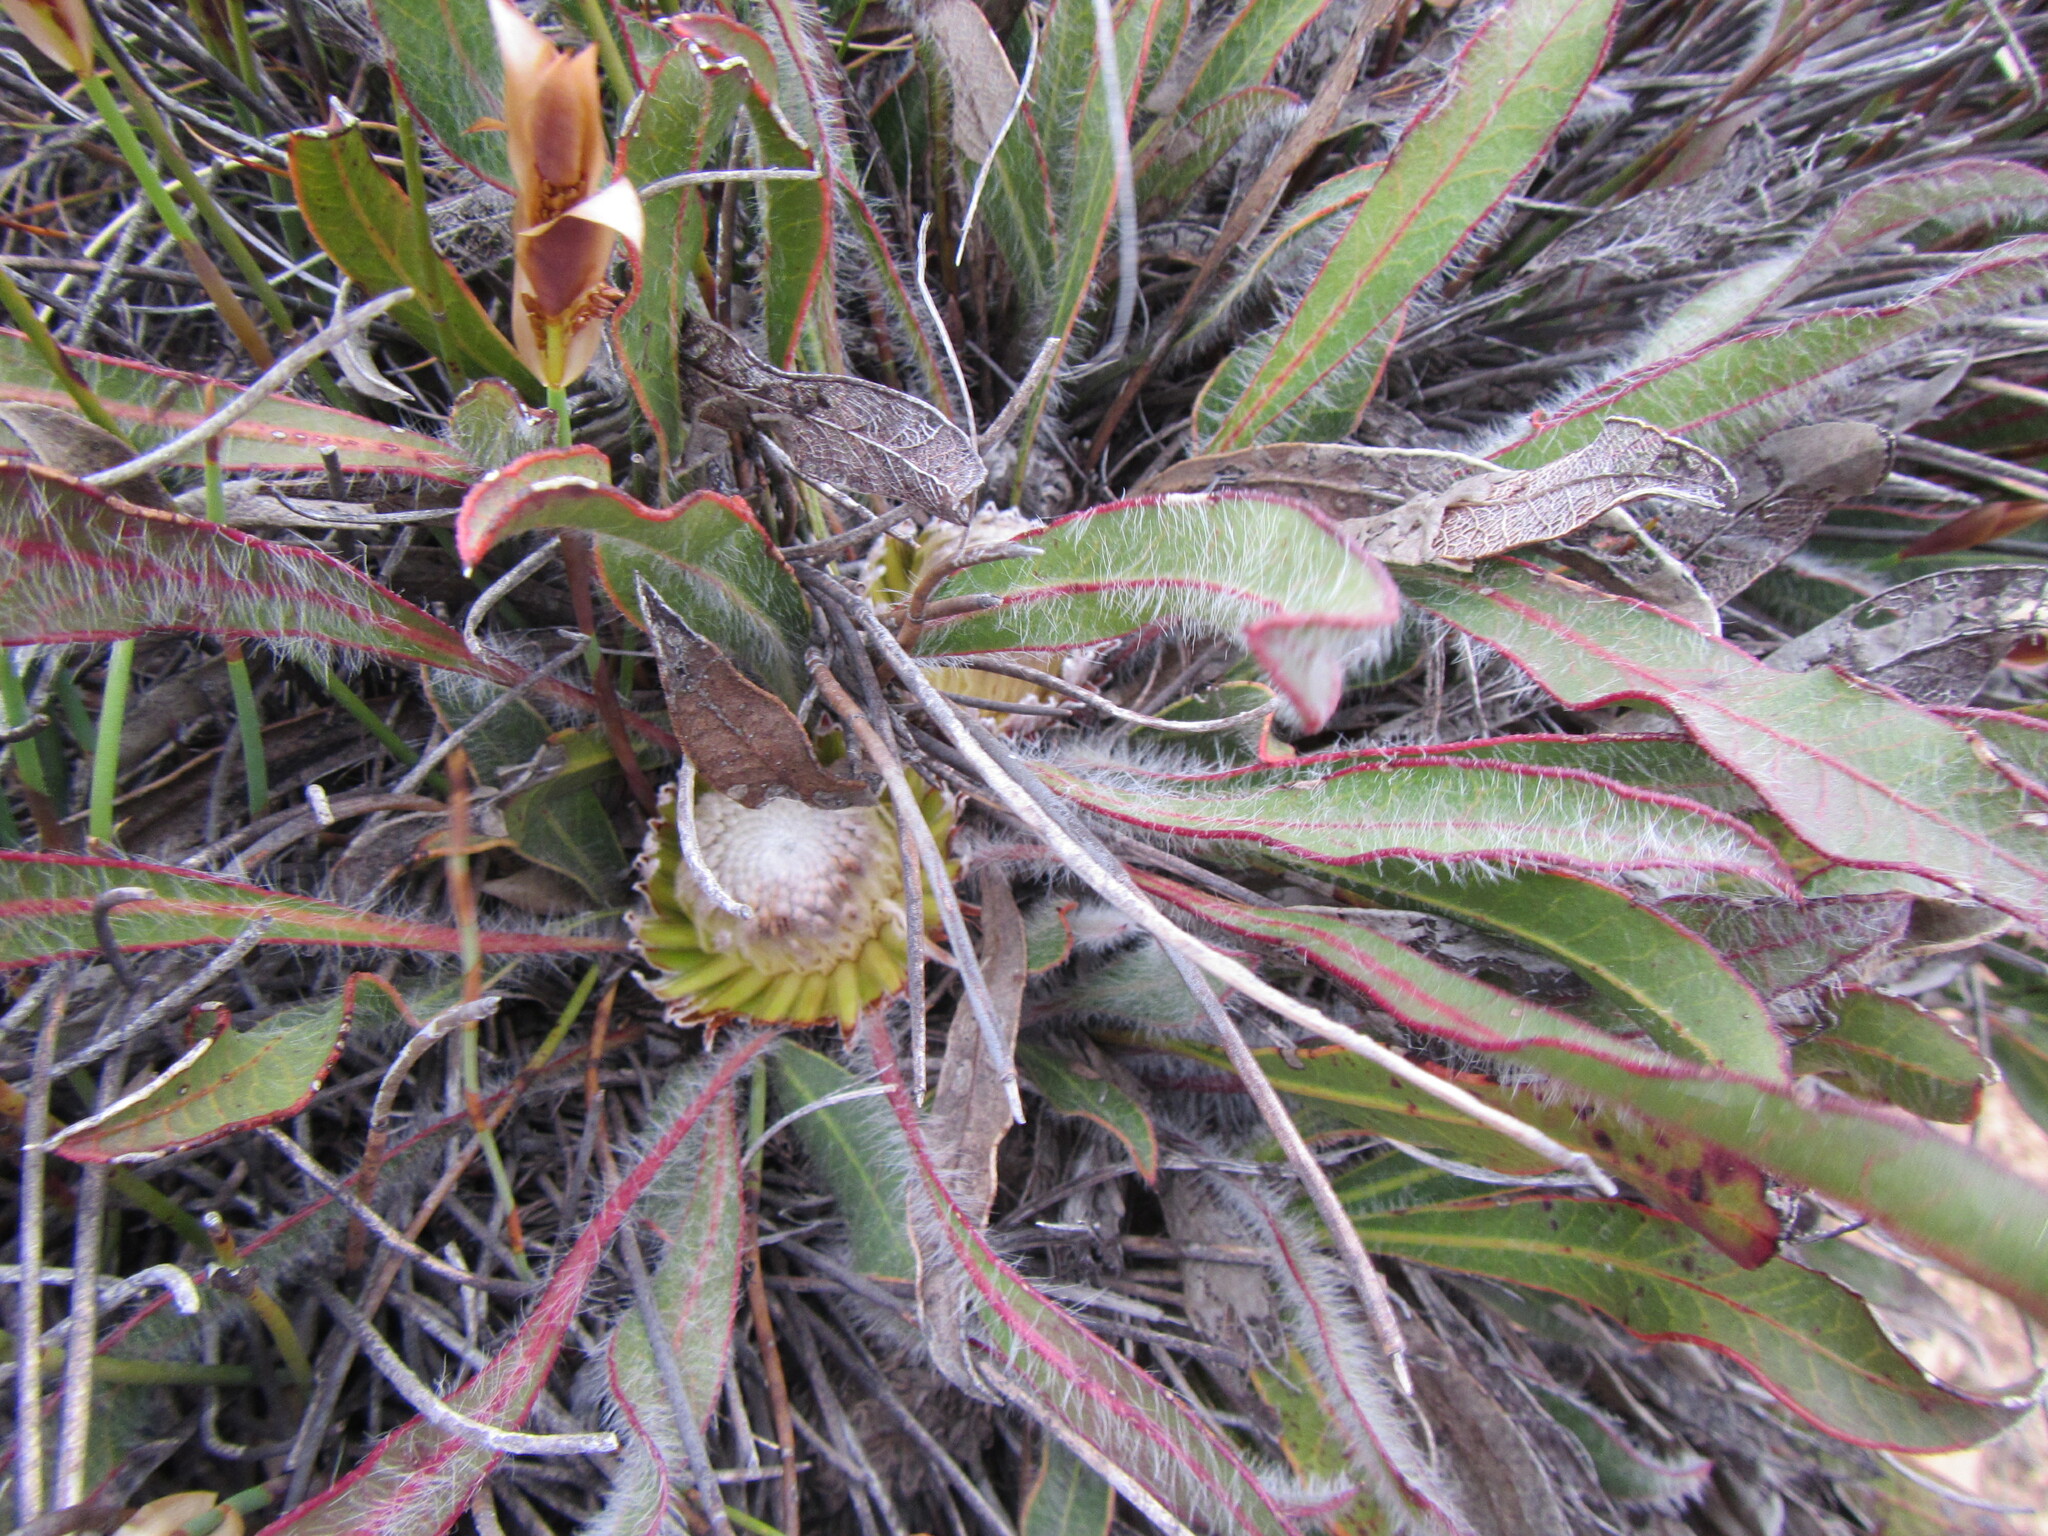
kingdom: Plantae
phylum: Tracheophyta
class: Magnoliopsida
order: Proteales
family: Proteaceae
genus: Protea
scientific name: Protea scabriuscula
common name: Hoary sugarbush
